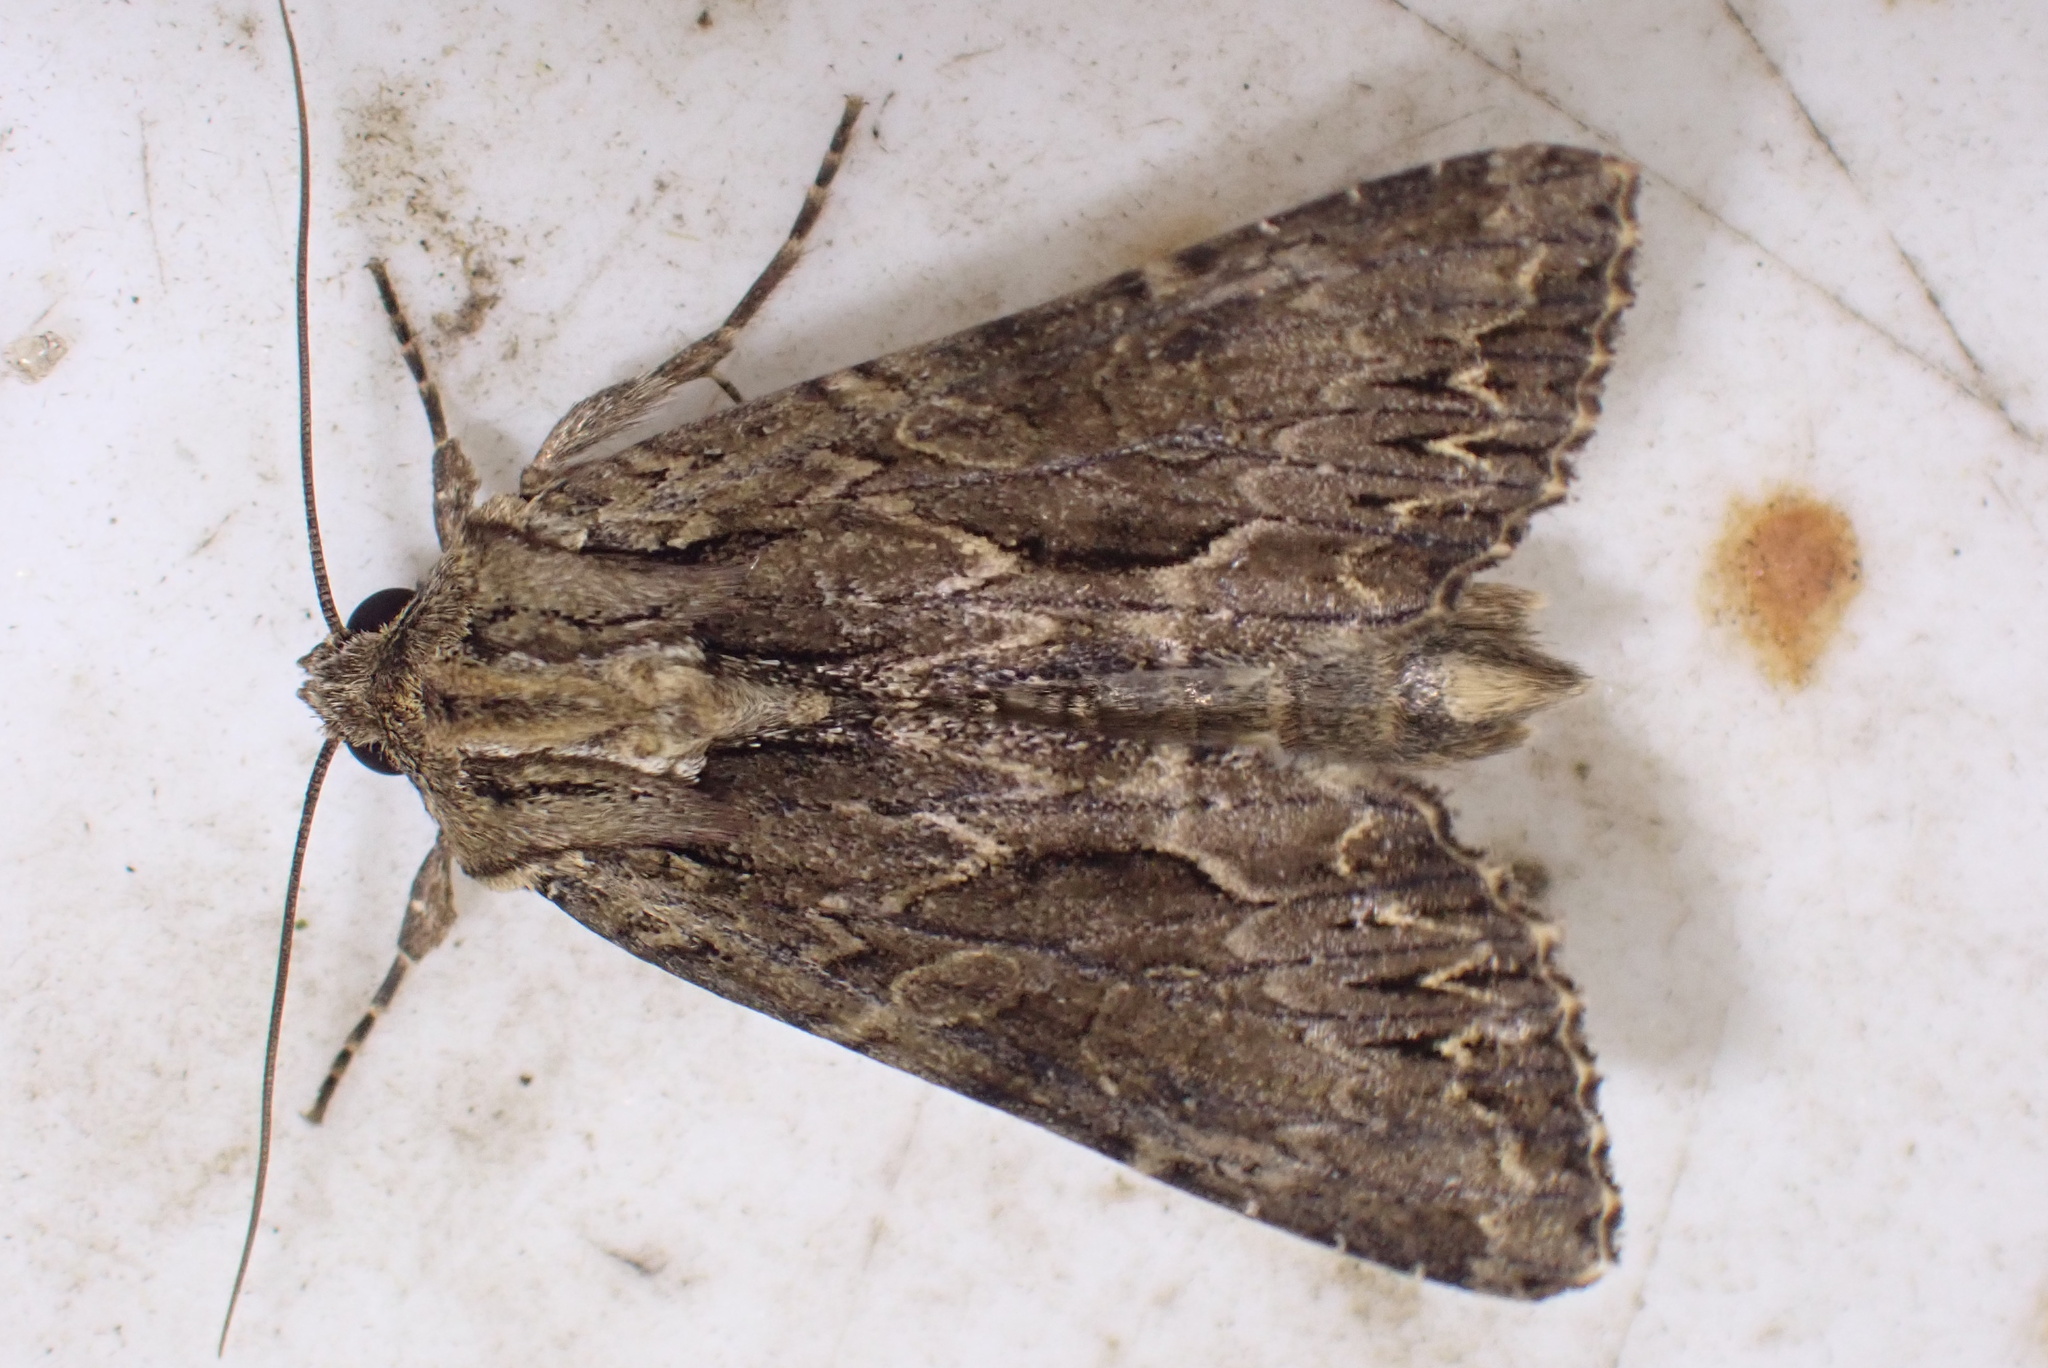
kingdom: Animalia
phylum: Arthropoda
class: Insecta
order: Lepidoptera
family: Noctuidae
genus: Apamea
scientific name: Apamea monoglypha
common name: Dark arches
